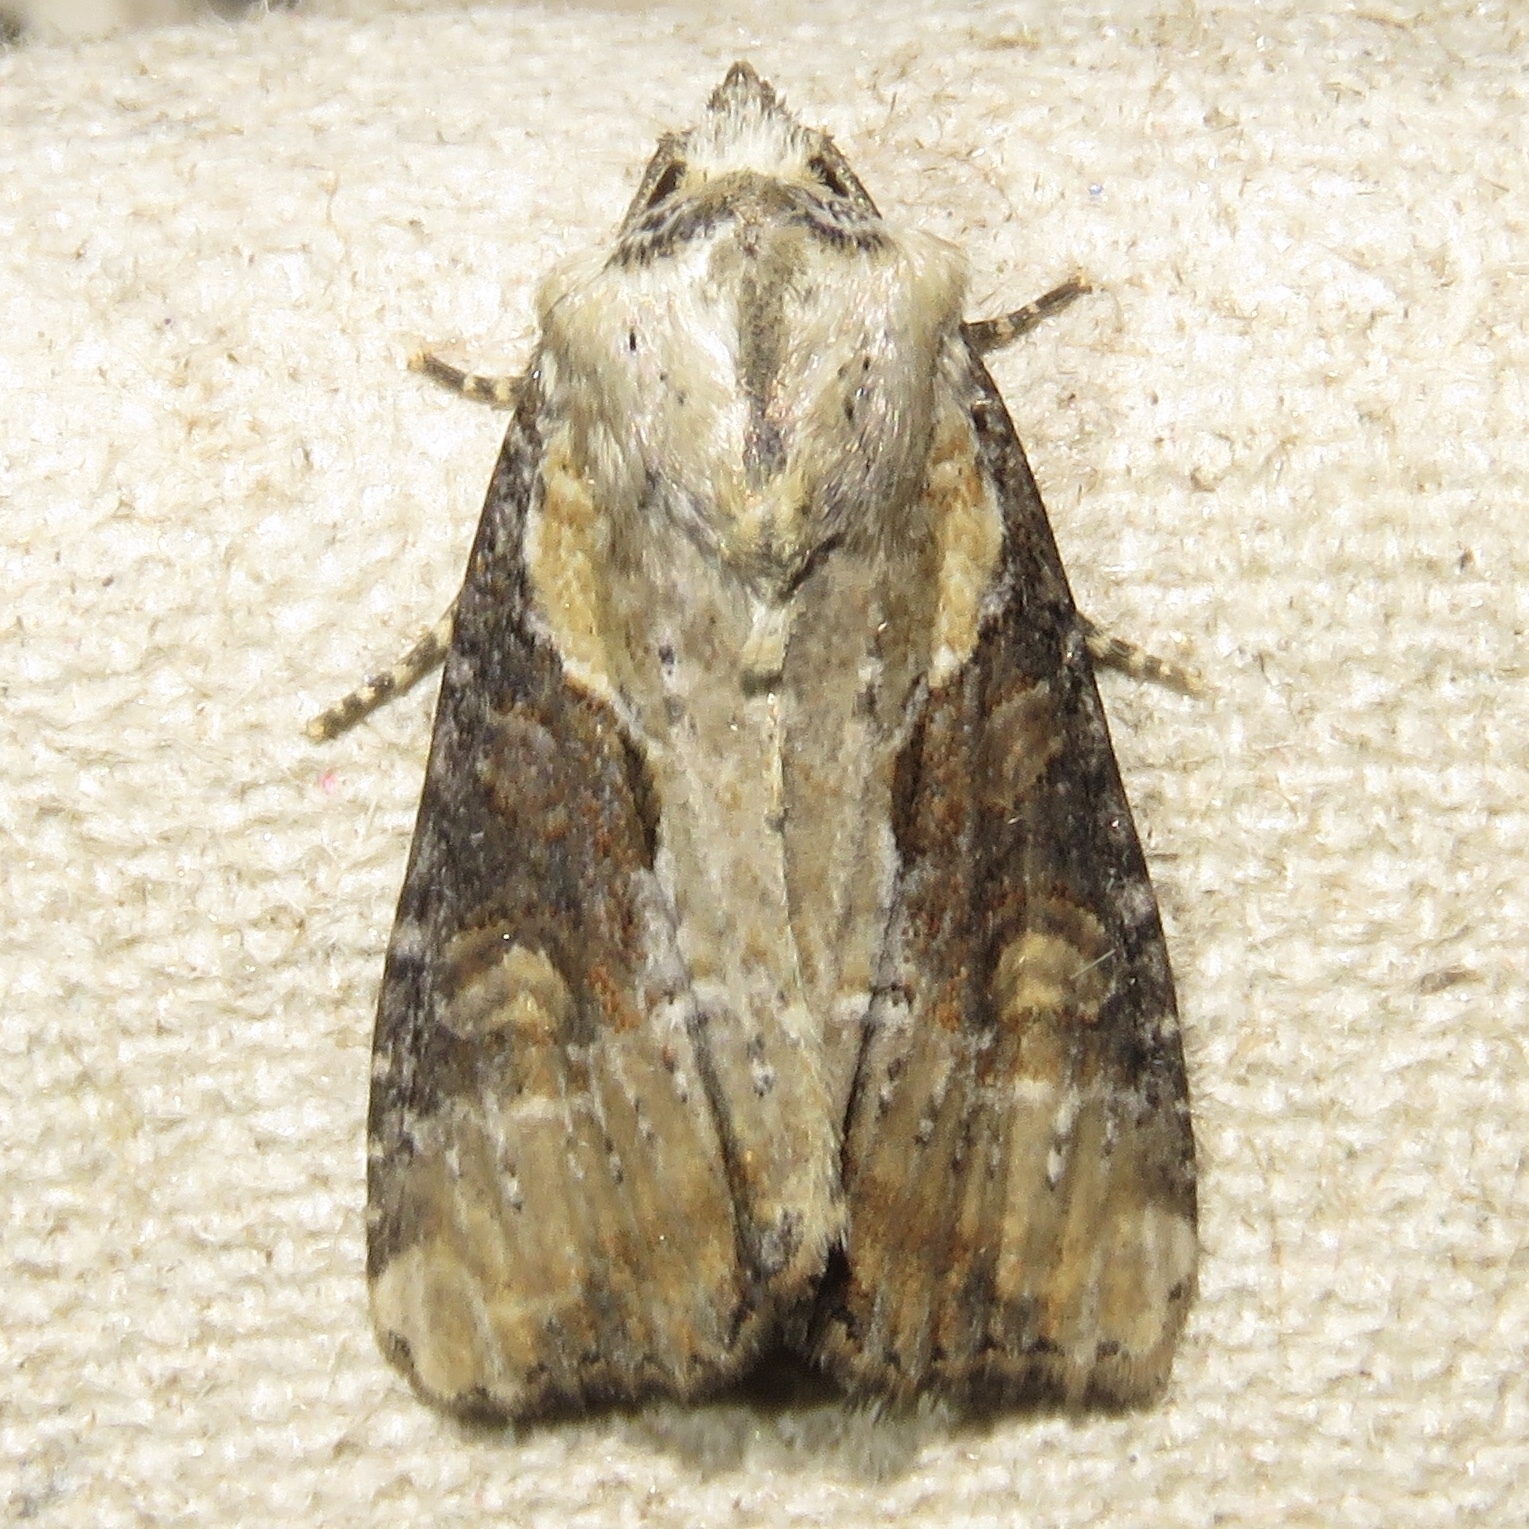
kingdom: Animalia
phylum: Arthropoda
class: Insecta
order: Lepidoptera
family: Noctuidae
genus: Lateroligia
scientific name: Lateroligia ophiogramma
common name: Double lobed
